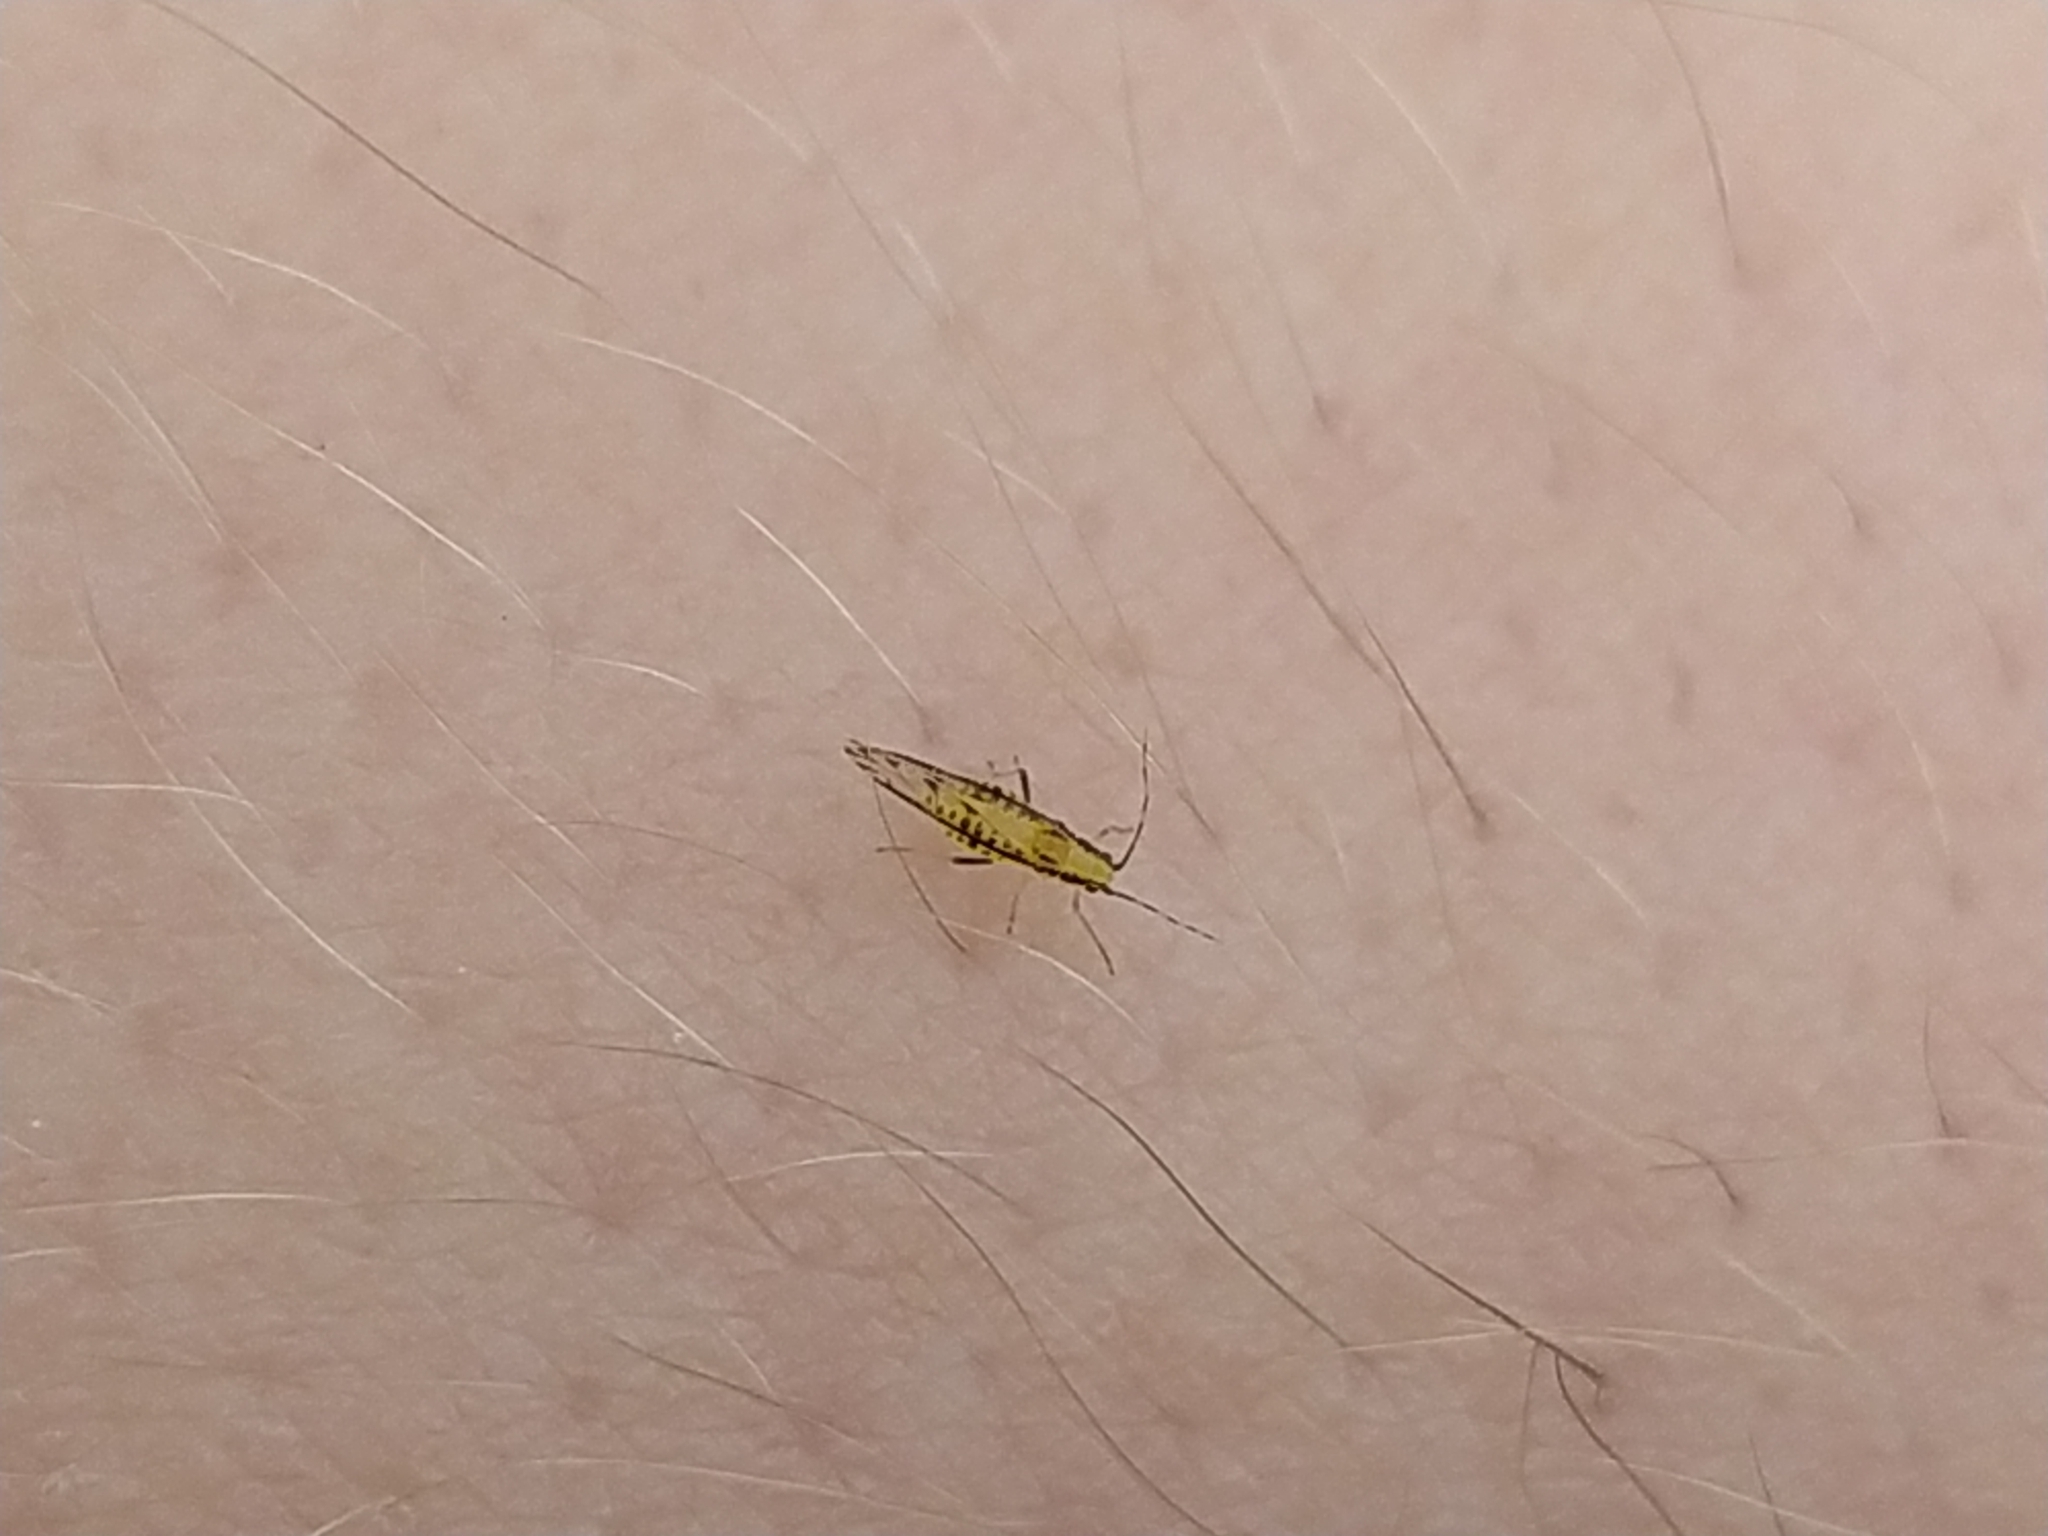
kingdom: Animalia
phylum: Arthropoda
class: Insecta
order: Hemiptera
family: Aphididae
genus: Eucallipterus
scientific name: Eucallipterus tiliae
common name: Aphid
